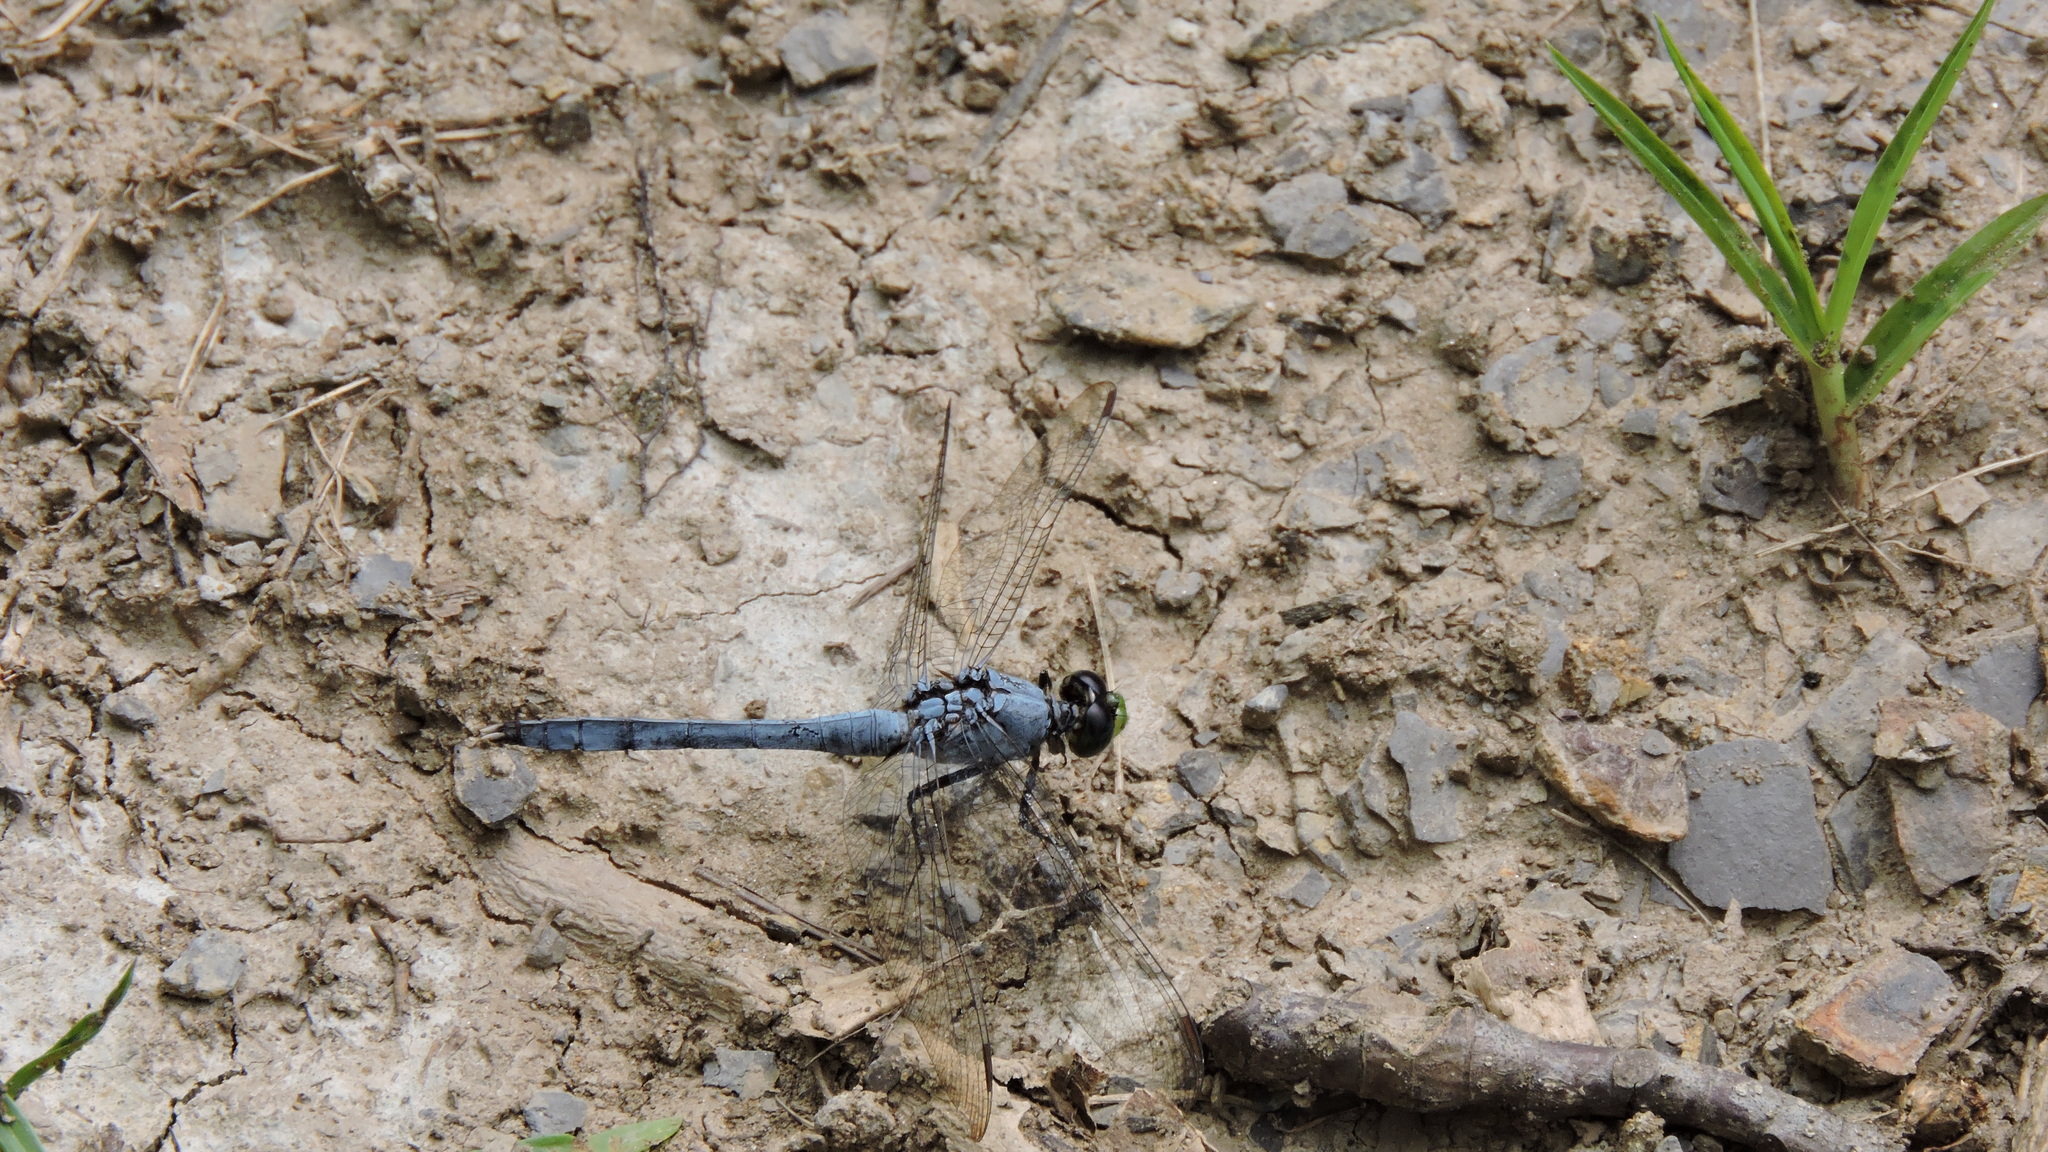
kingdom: Animalia
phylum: Arthropoda
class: Insecta
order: Odonata
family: Libellulidae
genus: Erythemis
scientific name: Erythemis simplicicollis
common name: Eastern pondhawk
